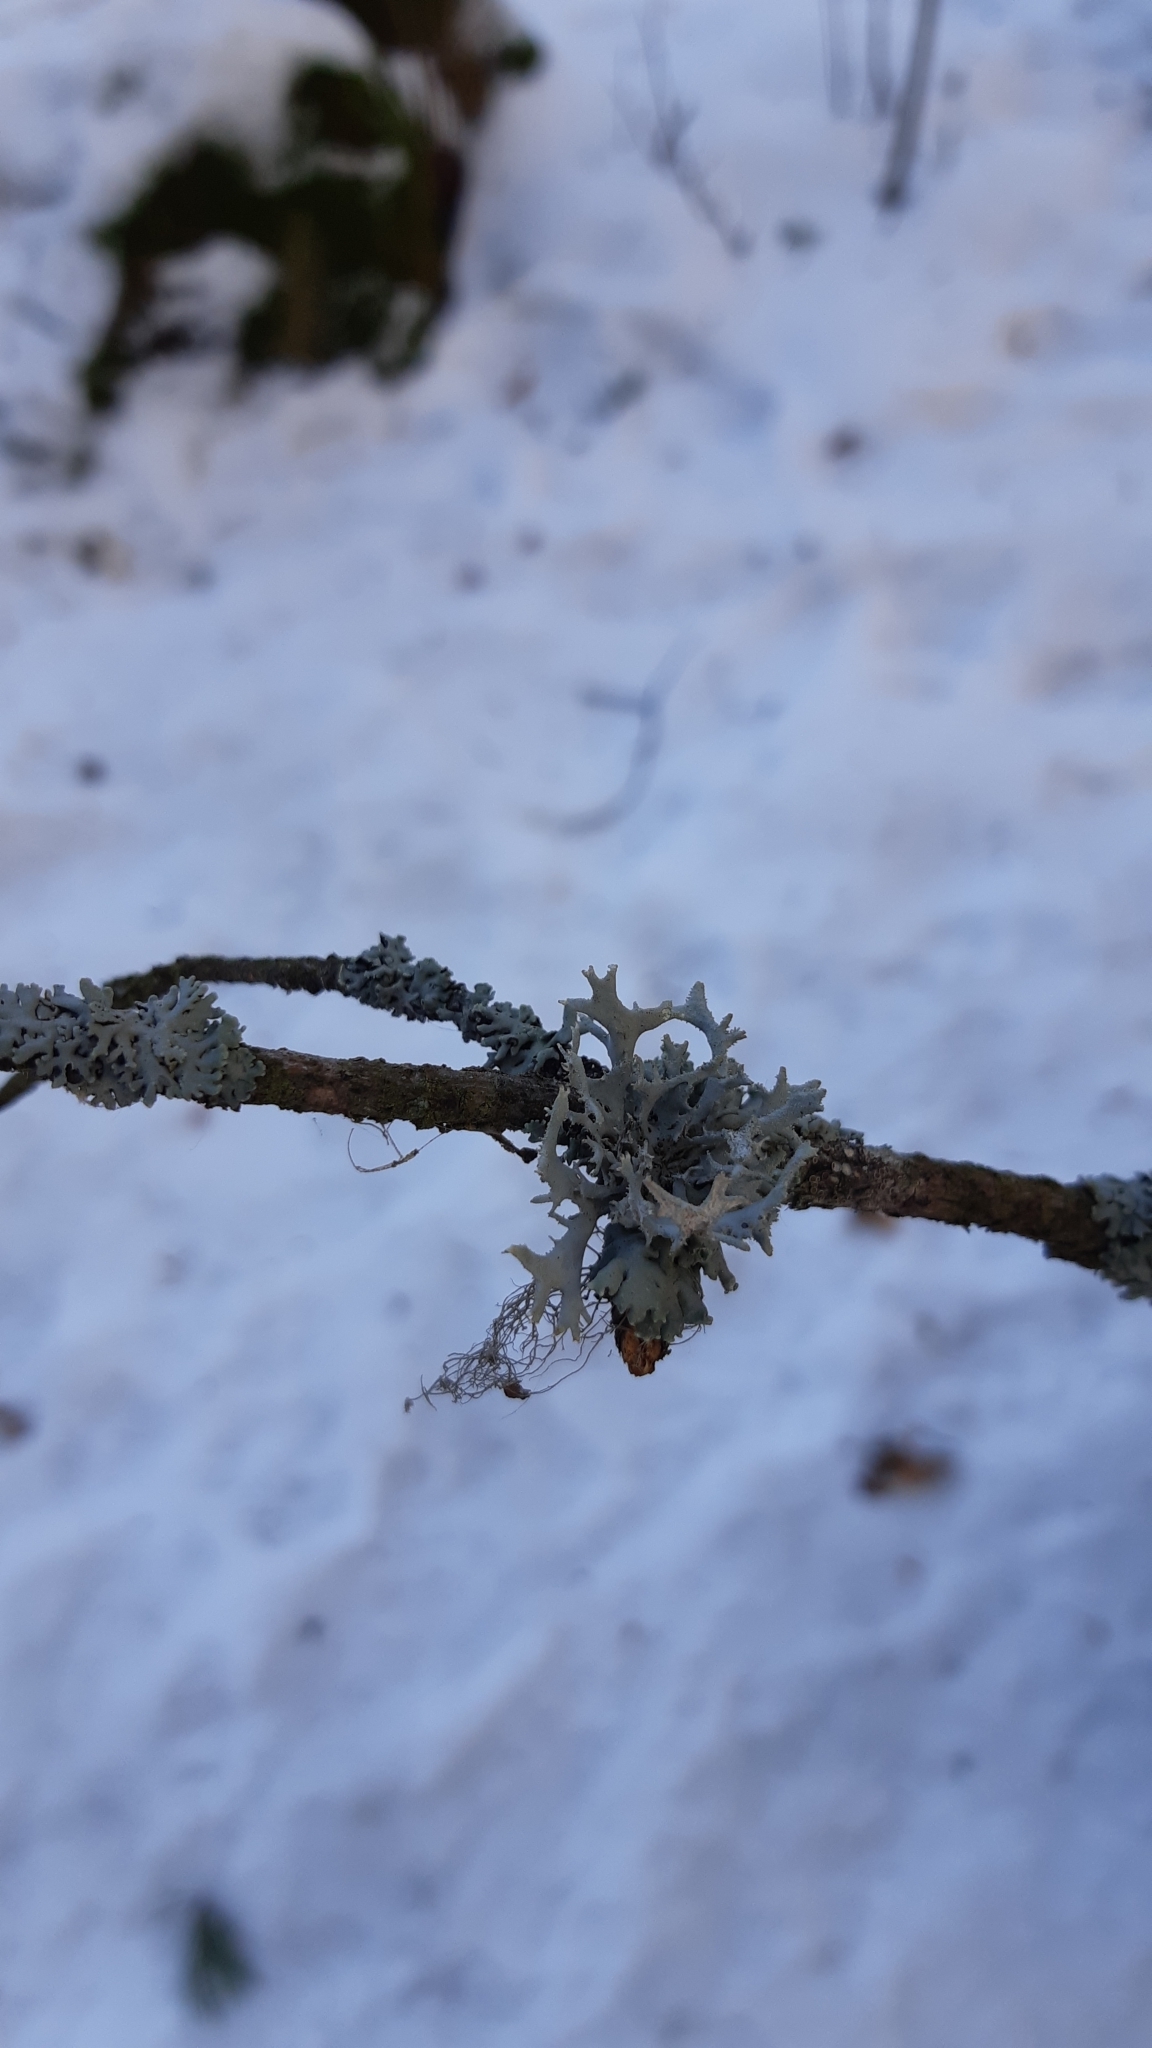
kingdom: Fungi
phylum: Ascomycota
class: Lecanoromycetes
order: Lecanorales
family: Parmeliaceae
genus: Pseudevernia
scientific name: Pseudevernia furfuracea
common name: Tree moss
